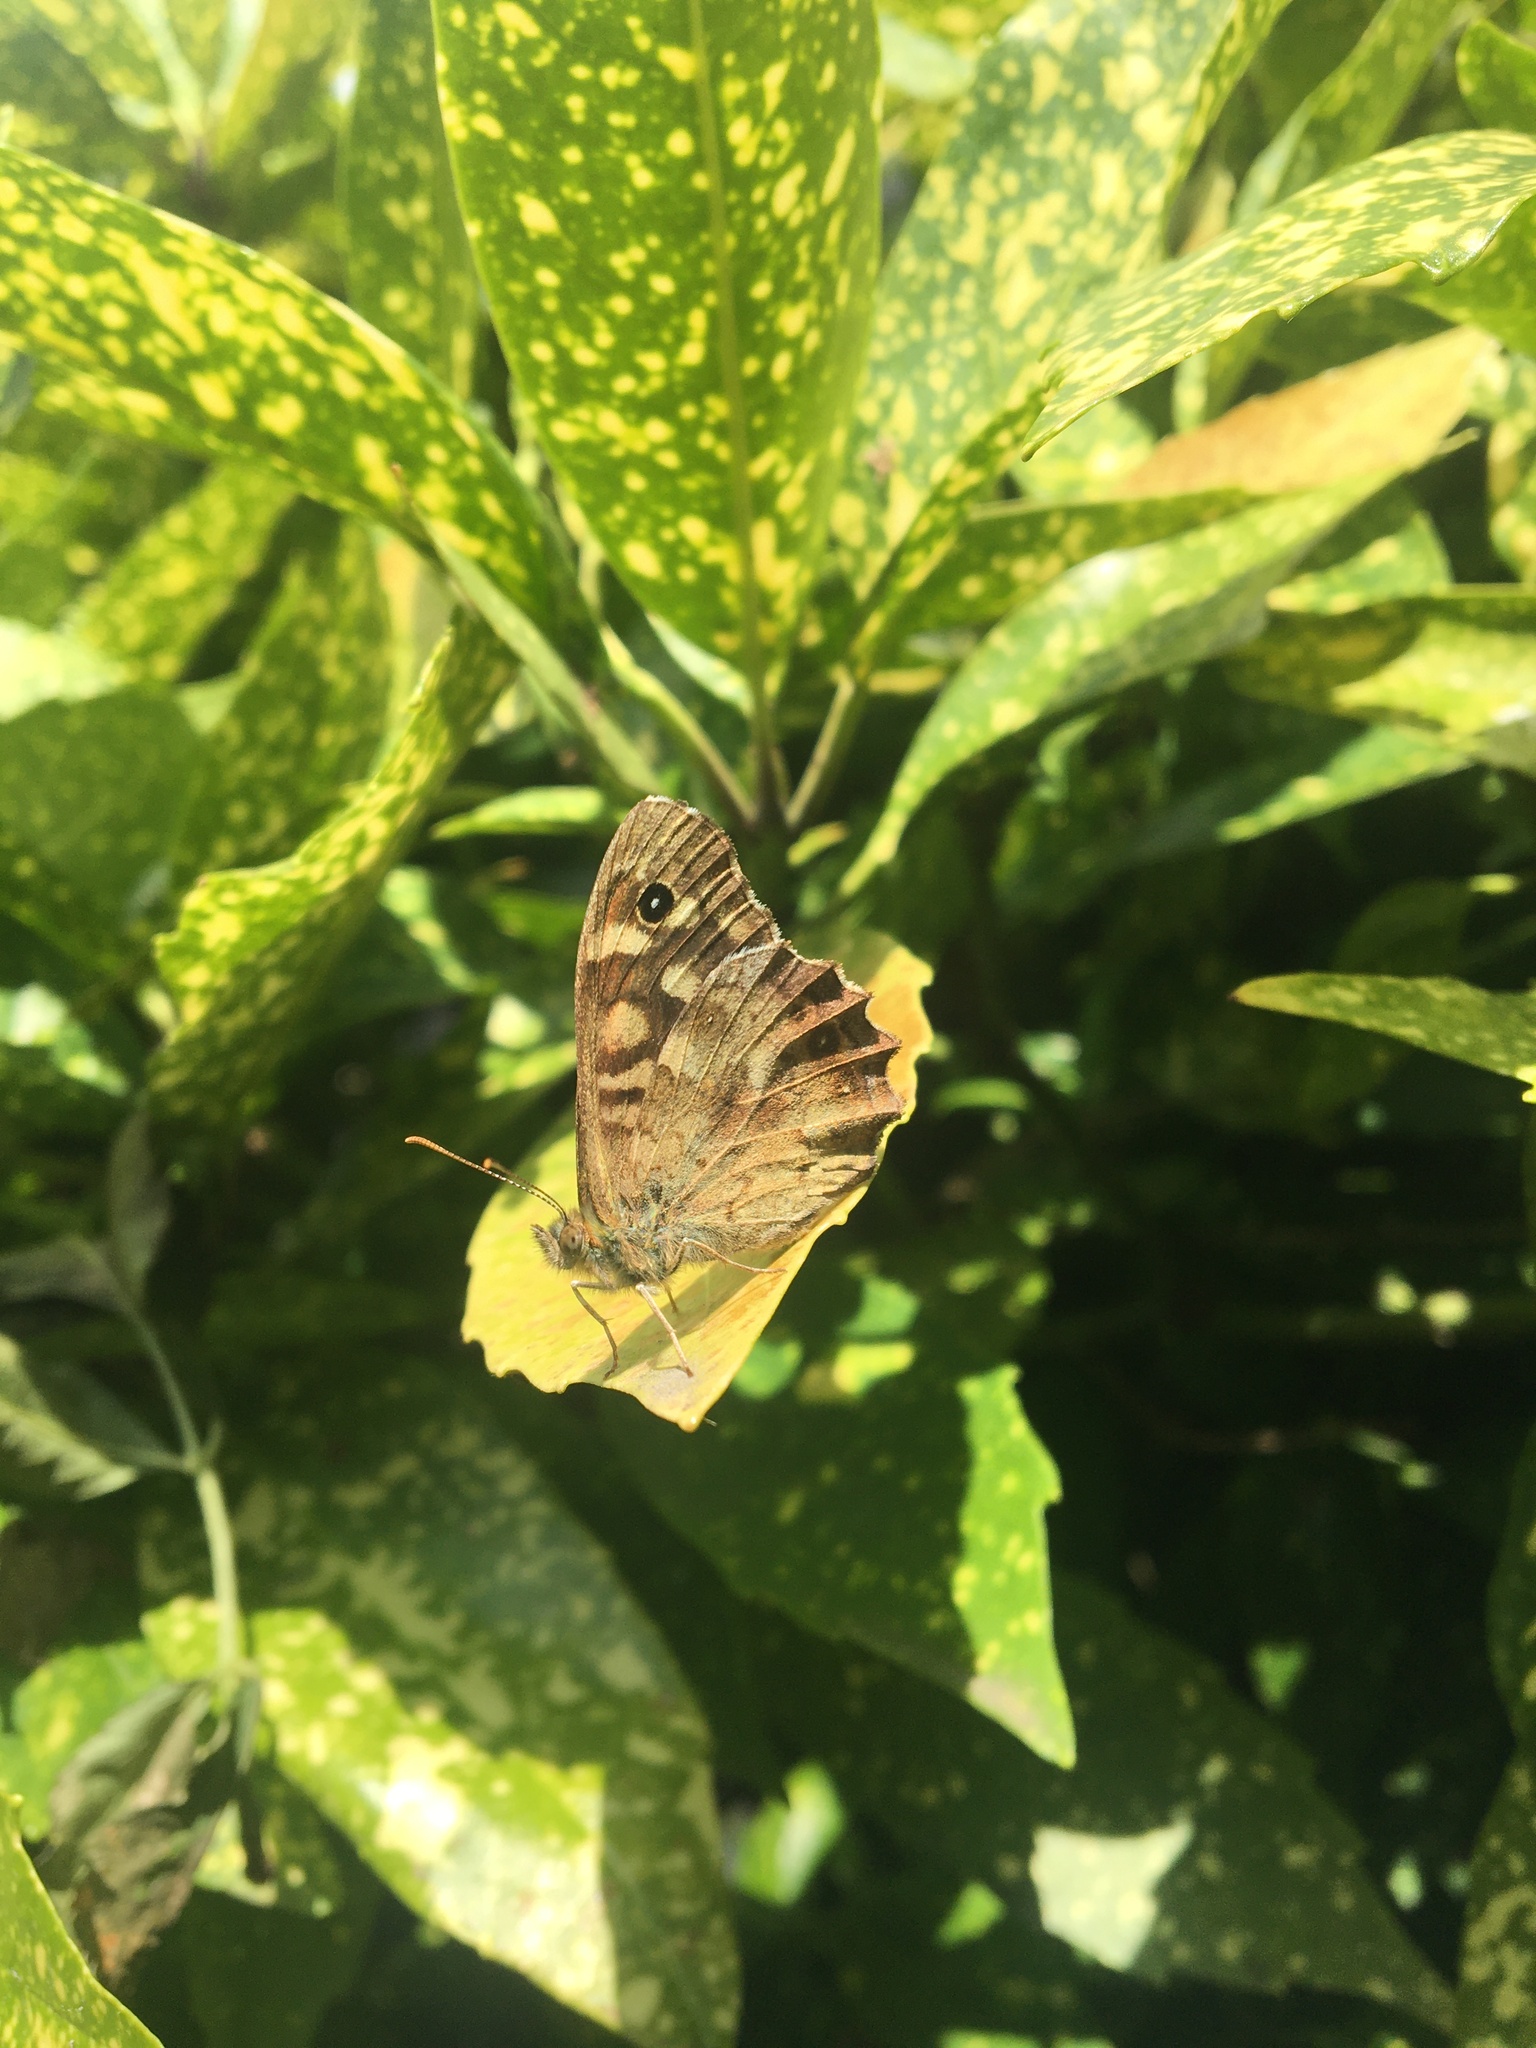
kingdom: Animalia
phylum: Arthropoda
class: Insecta
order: Lepidoptera
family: Nymphalidae
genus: Pararge
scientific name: Pararge aegeria
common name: Speckled wood
